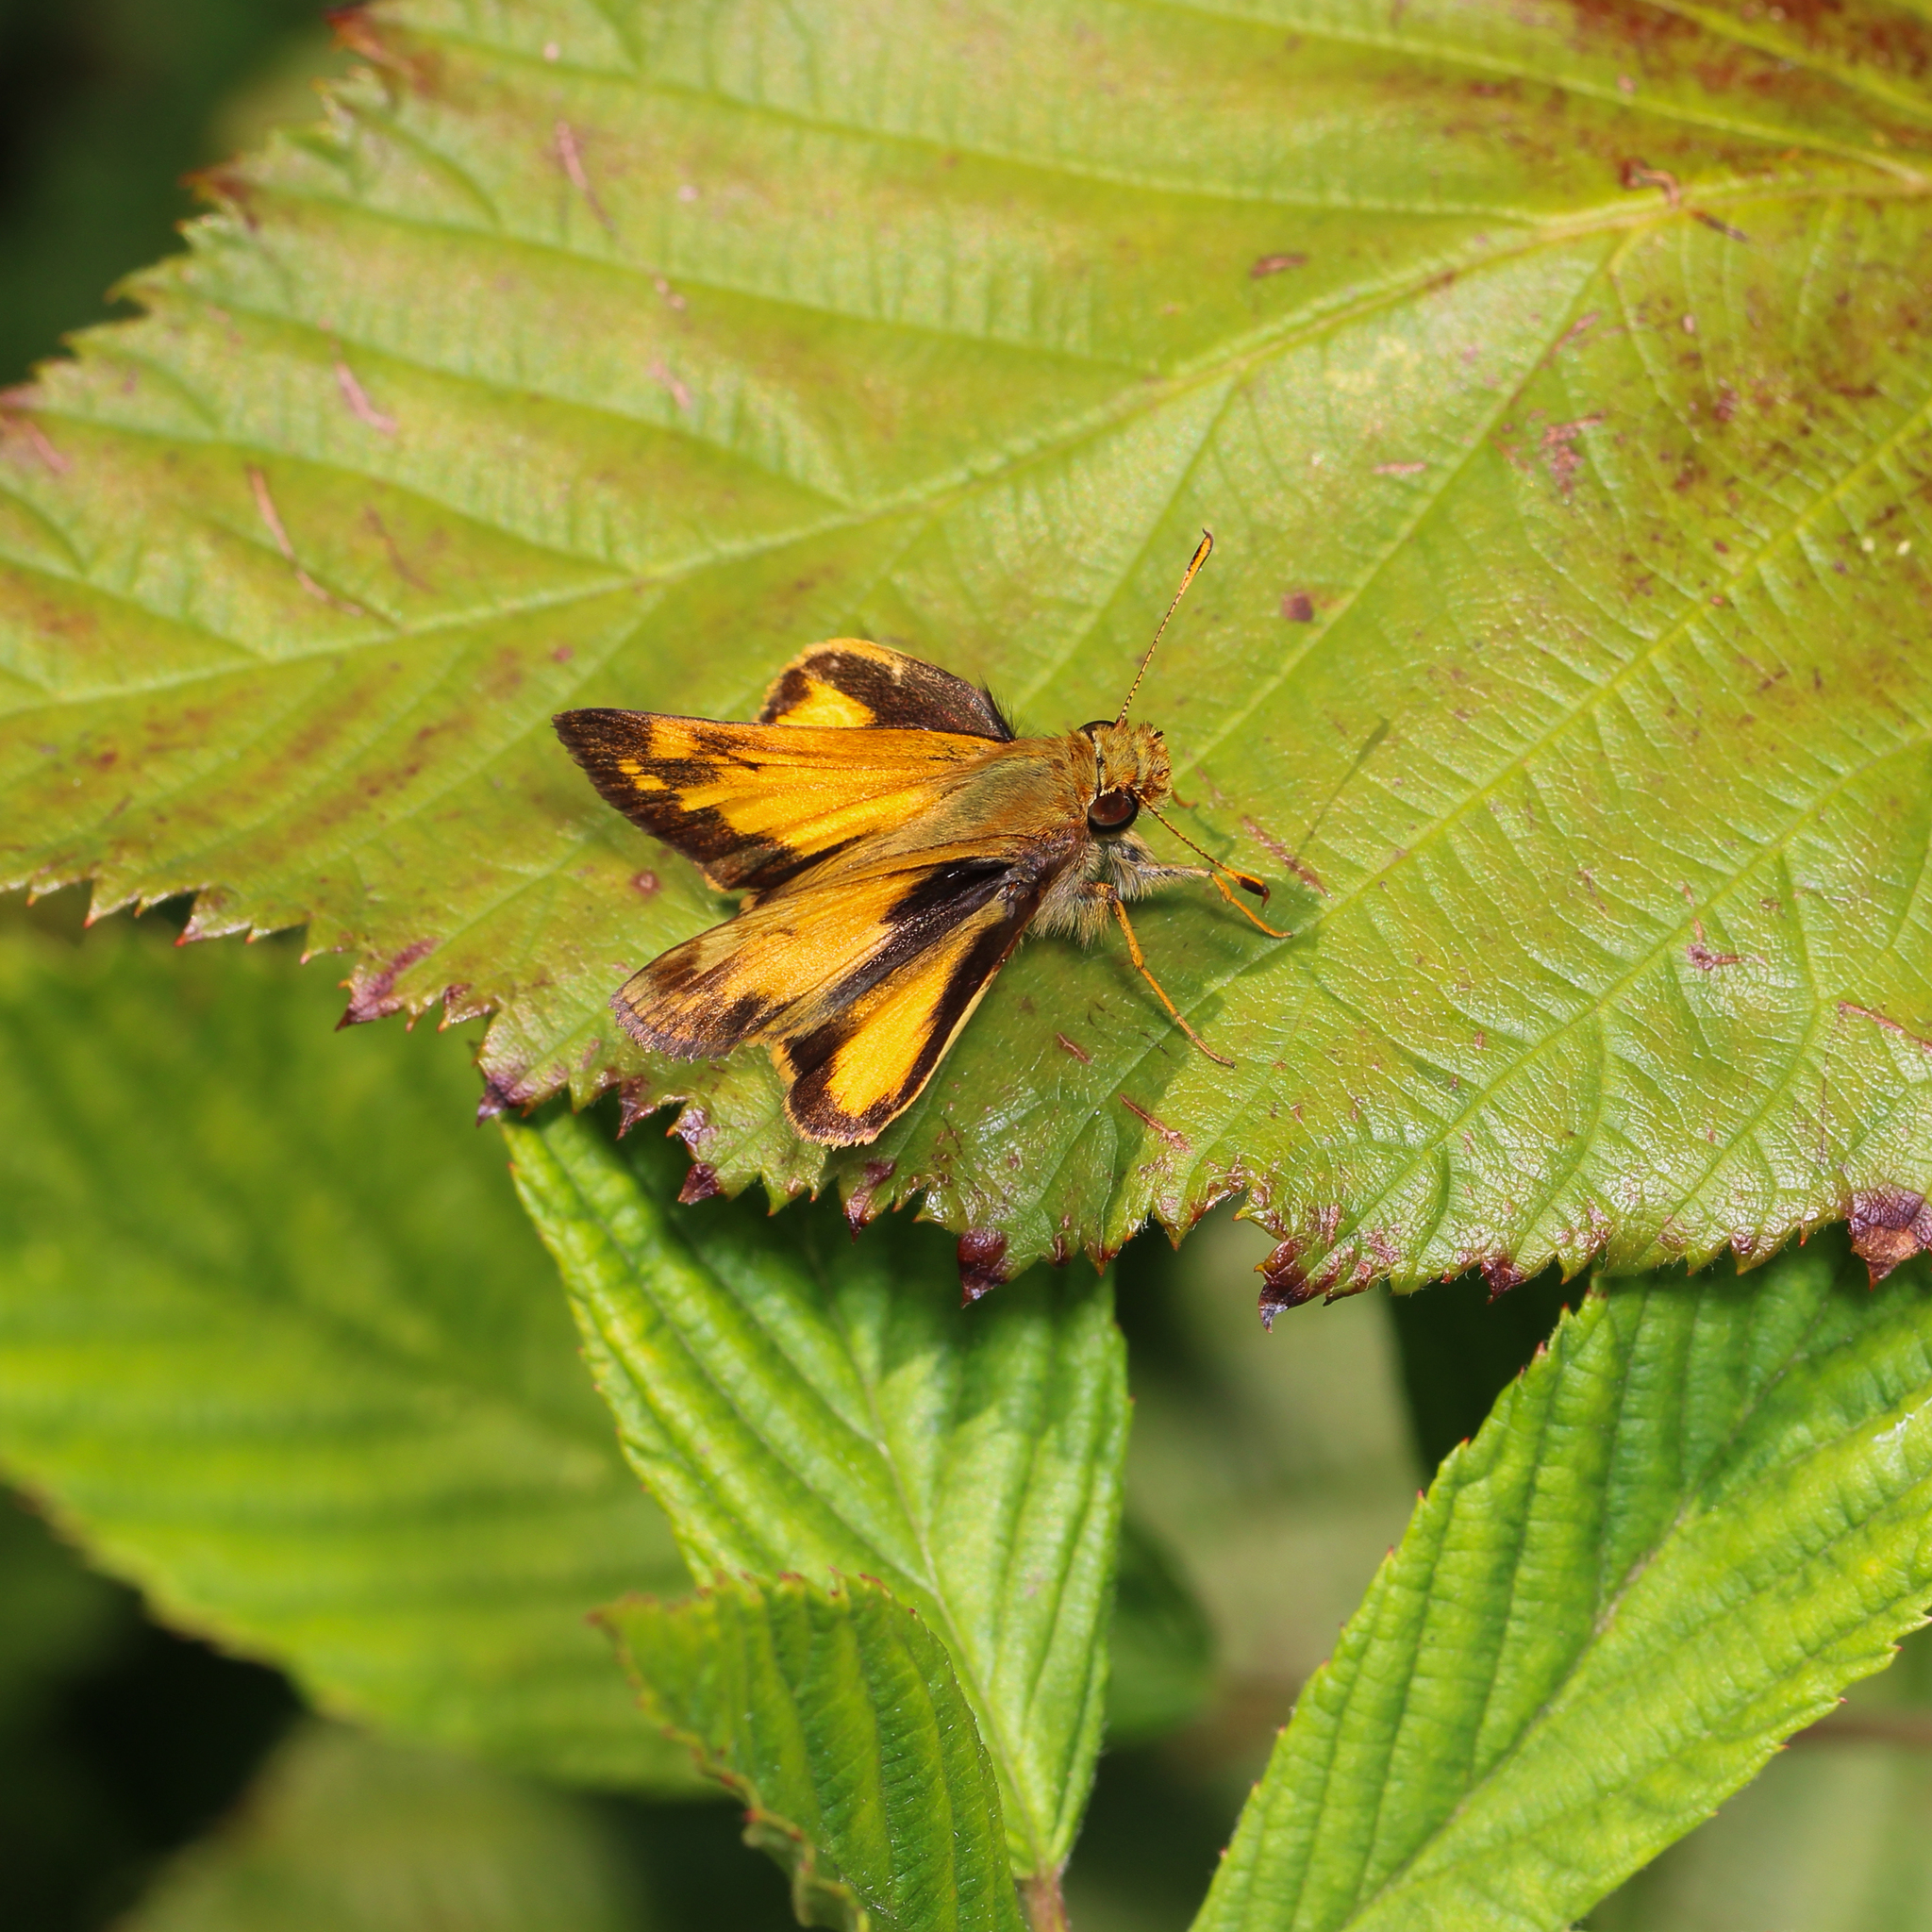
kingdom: Animalia
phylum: Arthropoda
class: Insecta
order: Lepidoptera
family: Hesperiidae
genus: Lon
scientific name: Lon zabulon
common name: Zabulon skipper
